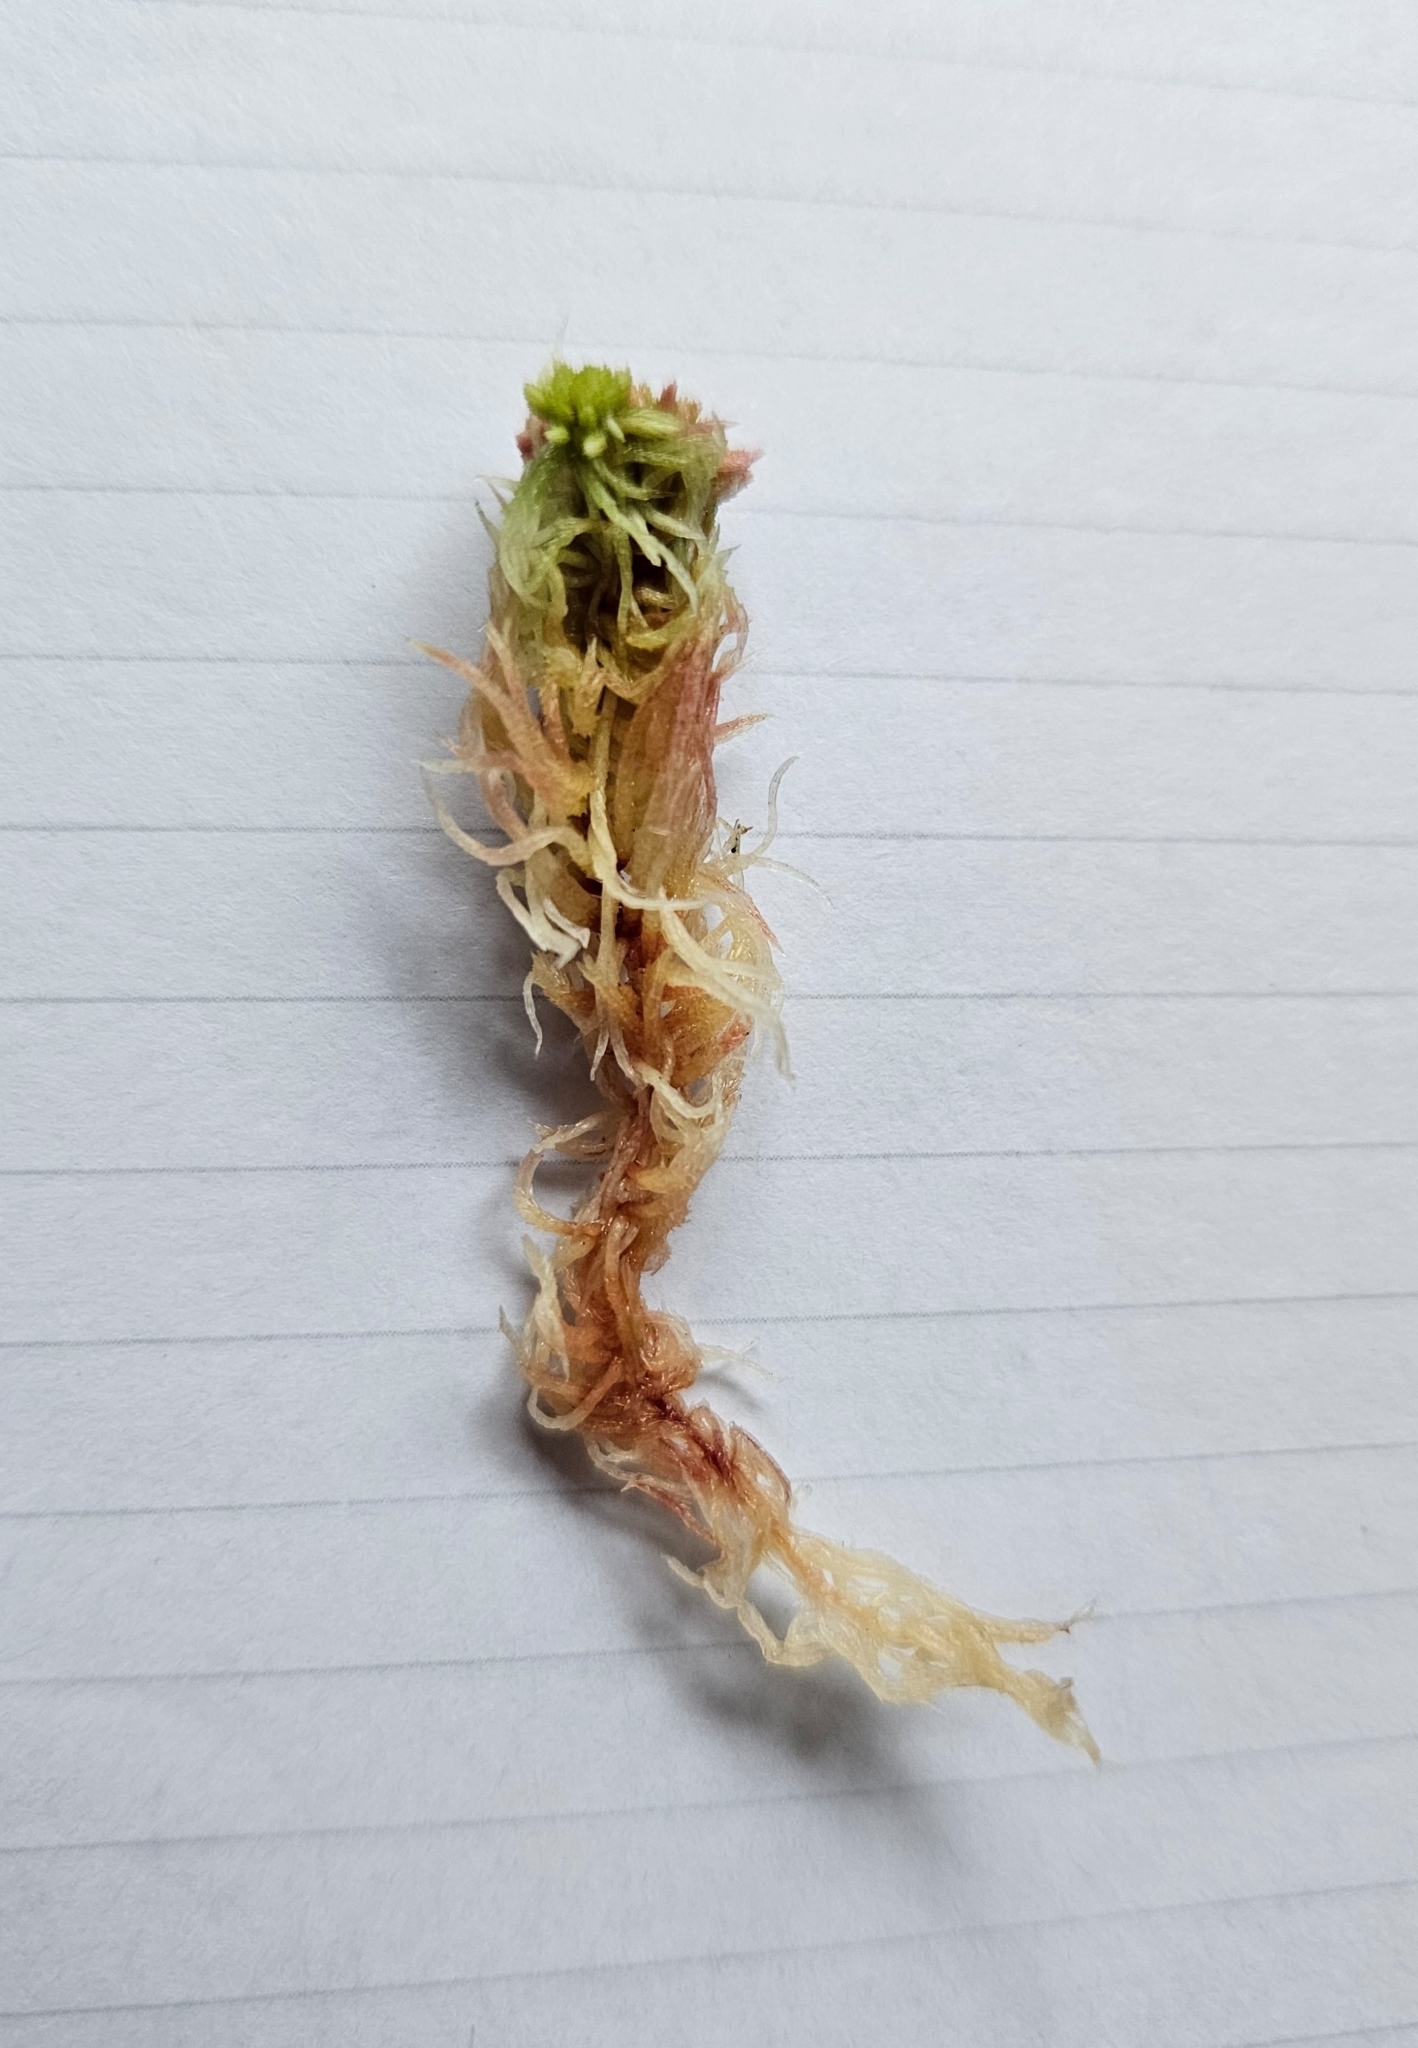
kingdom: Plantae
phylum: Bryophyta
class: Sphagnopsida
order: Sphagnales
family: Sphagnaceae
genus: Sphagnum
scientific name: Sphagnum capillifolium
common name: Small red peat moss
